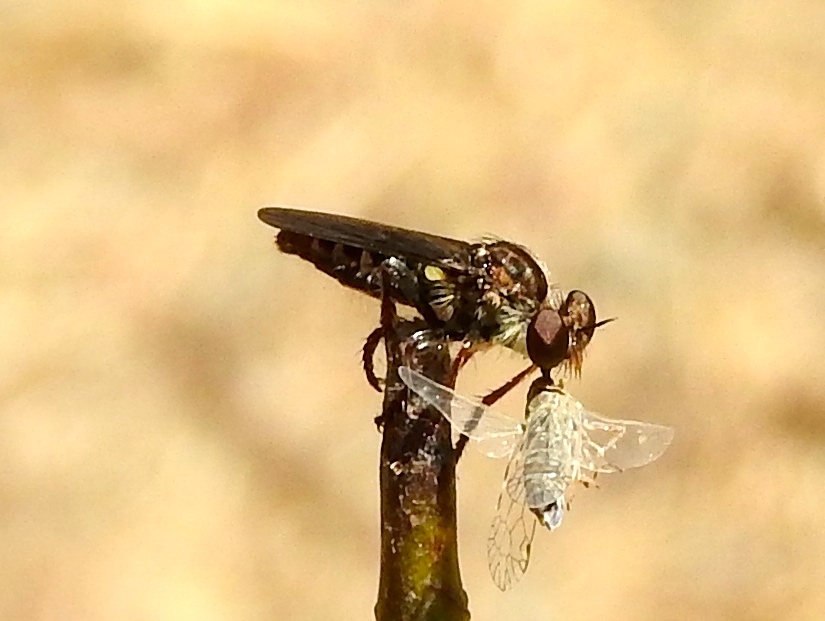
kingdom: Animalia
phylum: Arthropoda
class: Insecta
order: Diptera
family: Asilidae
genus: Heteropogon
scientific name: Heteropogon
